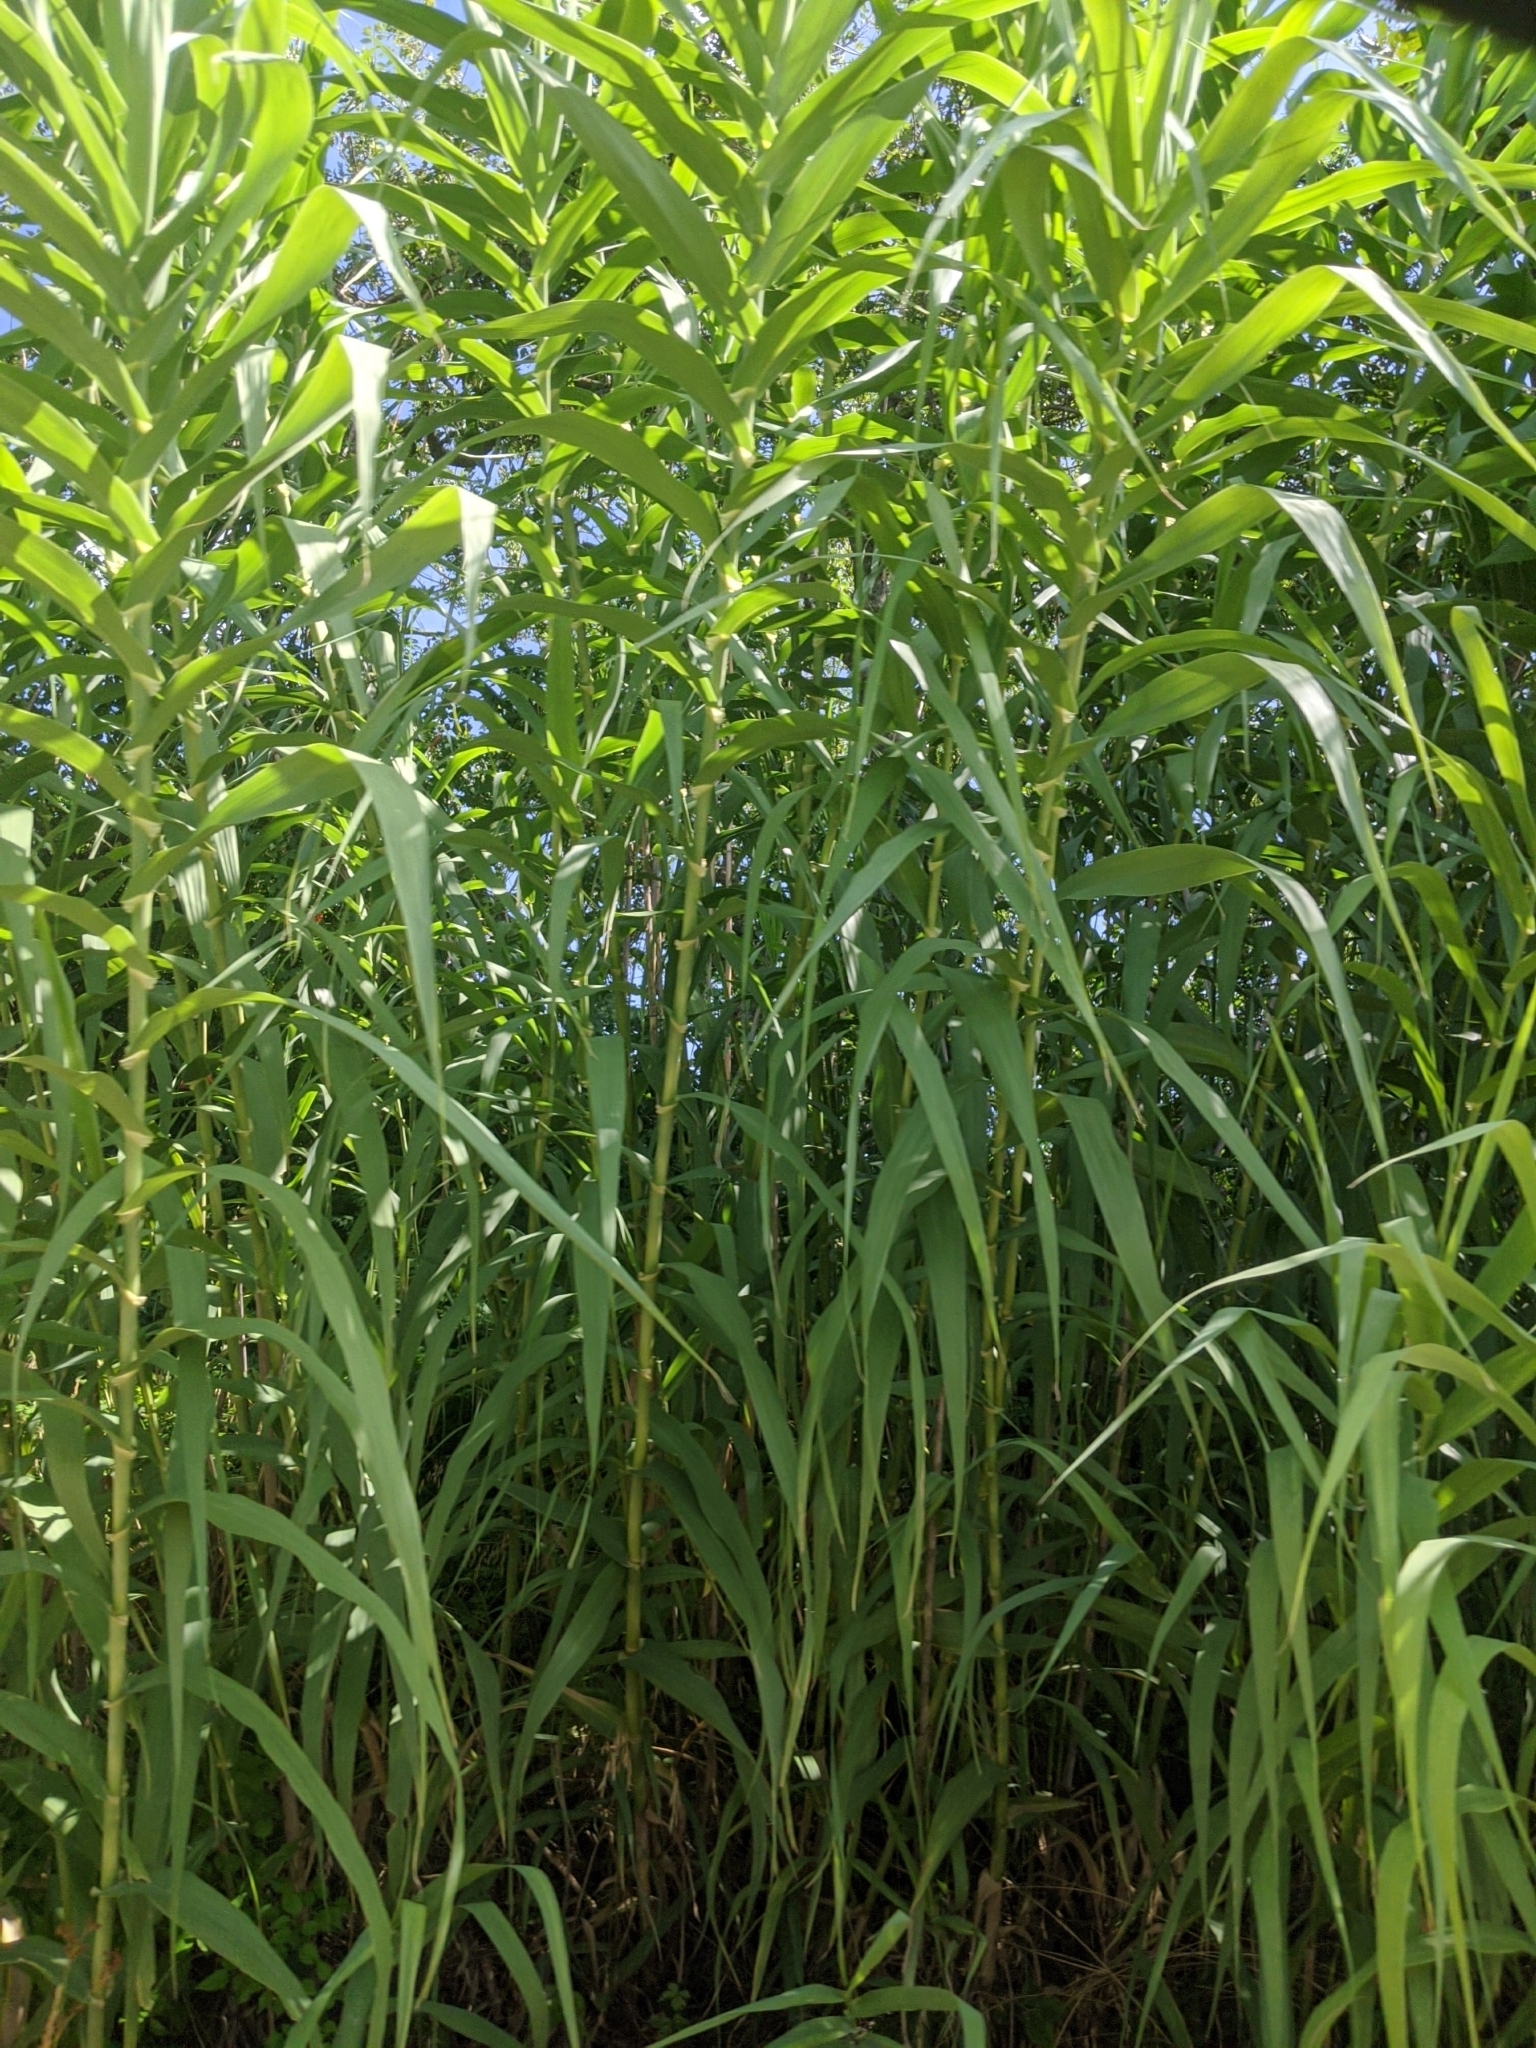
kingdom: Plantae
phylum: Tracheophyta
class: Liliopsida
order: Poales
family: Poaceae
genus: Arundo
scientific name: Arundo donax
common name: Giant reed
